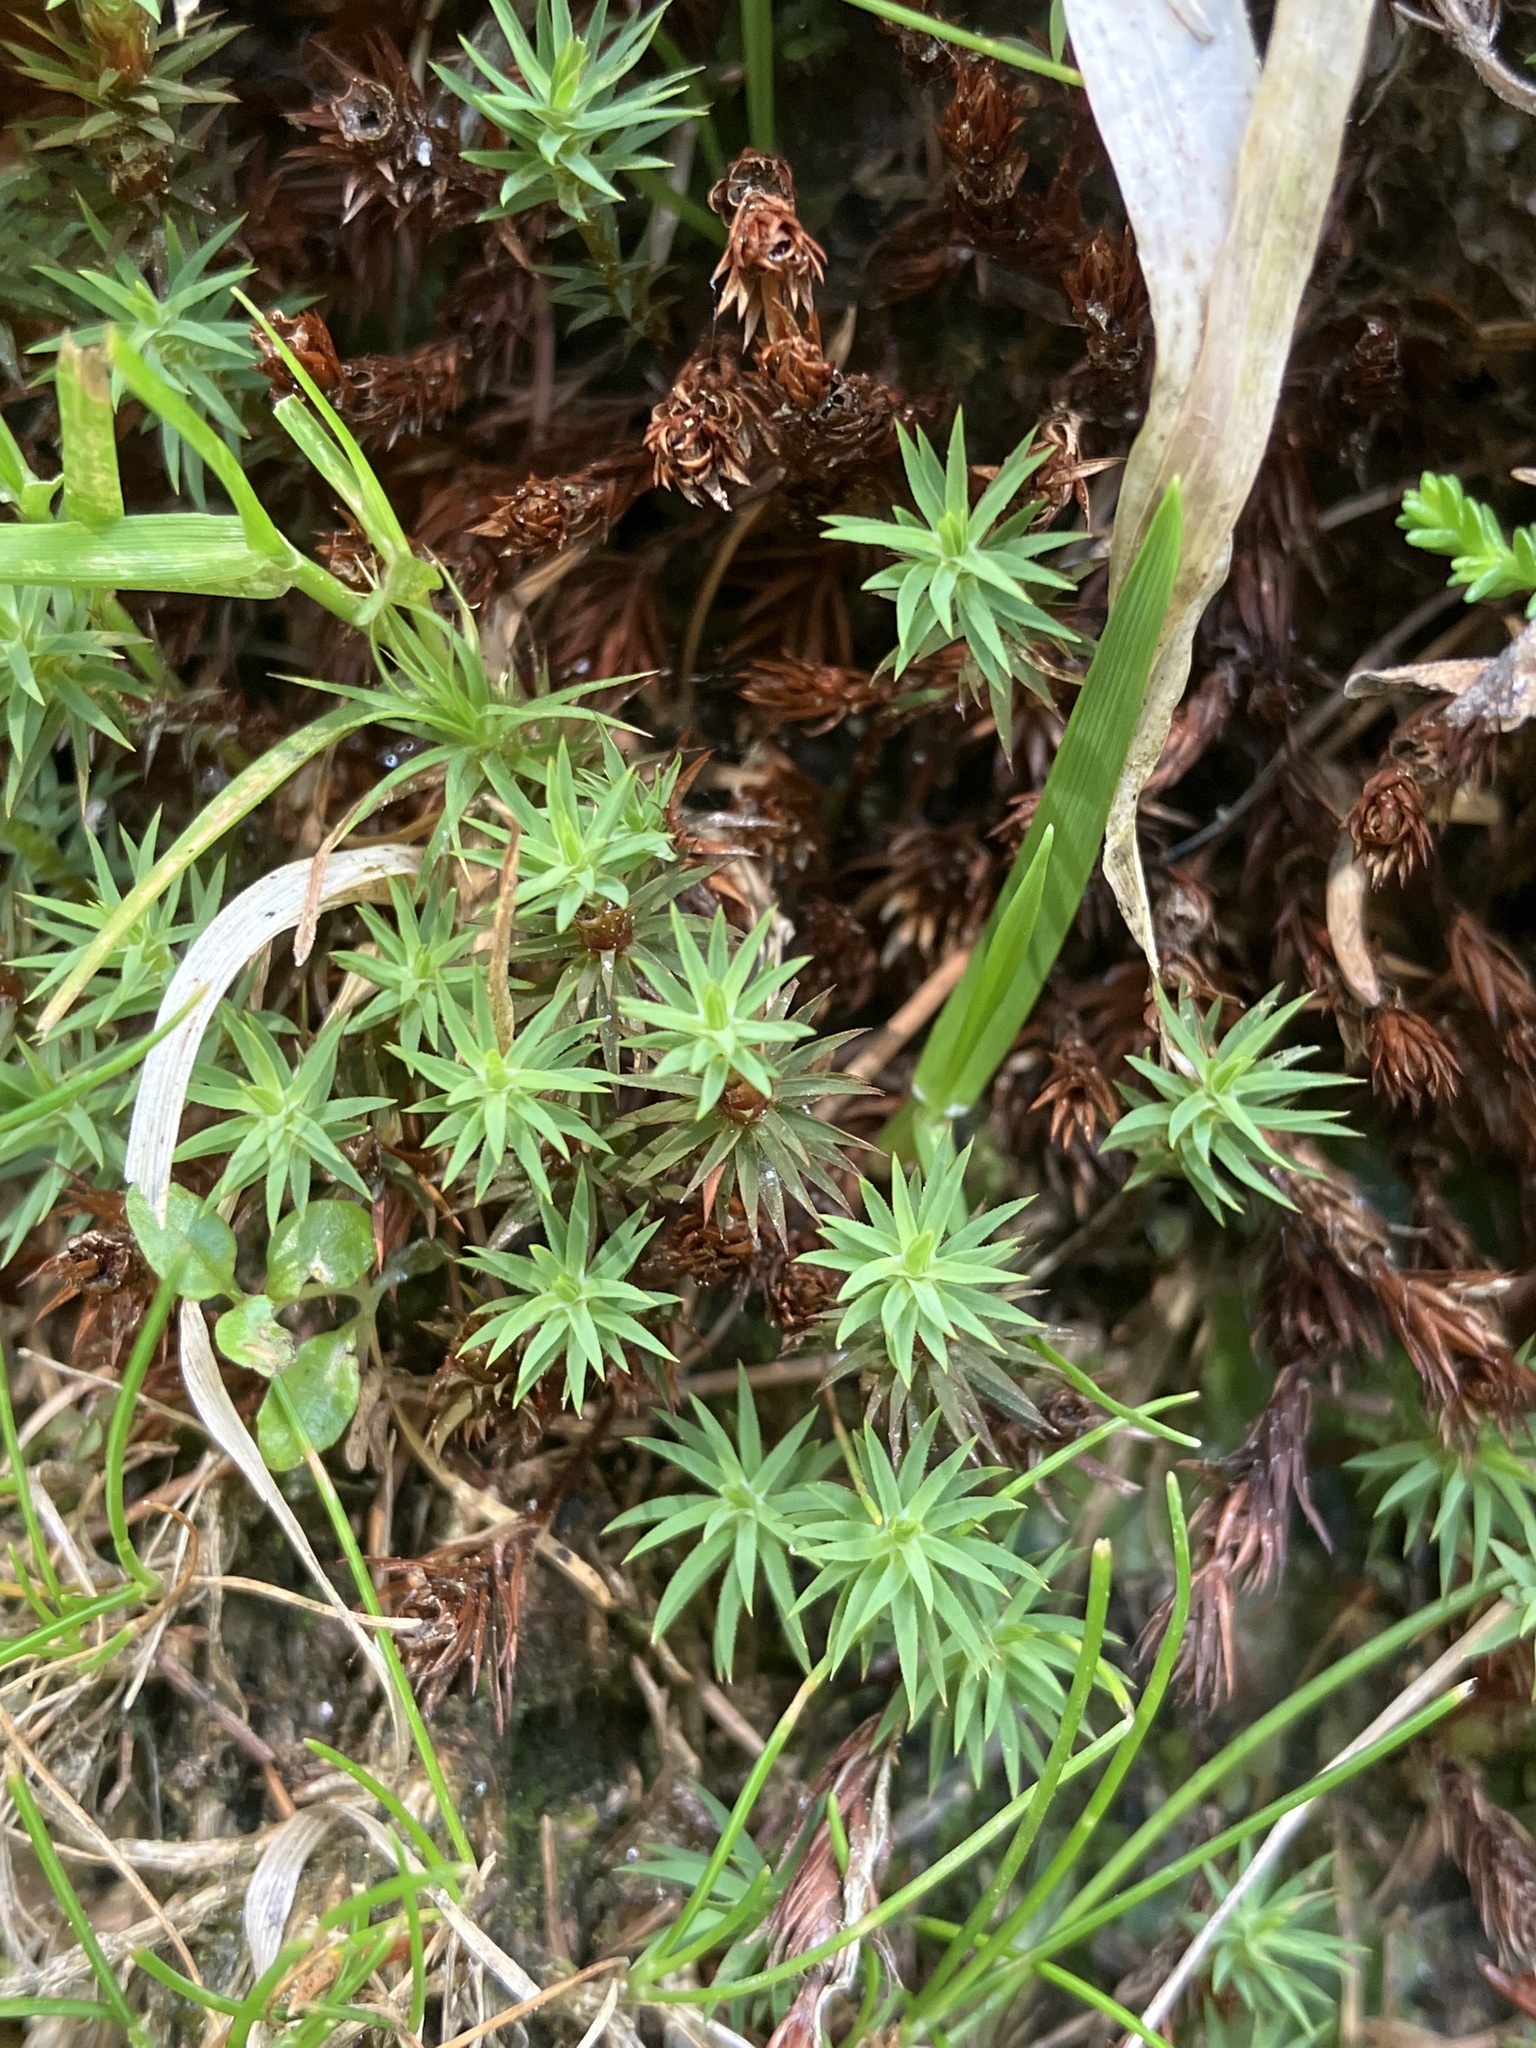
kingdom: Plantae
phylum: Bryophyta
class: Polytrichopsida
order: Polytrichales
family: Polytrichaceae
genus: Pogonatum
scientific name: Pogonatum urnigerum
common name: Urn hair moss
